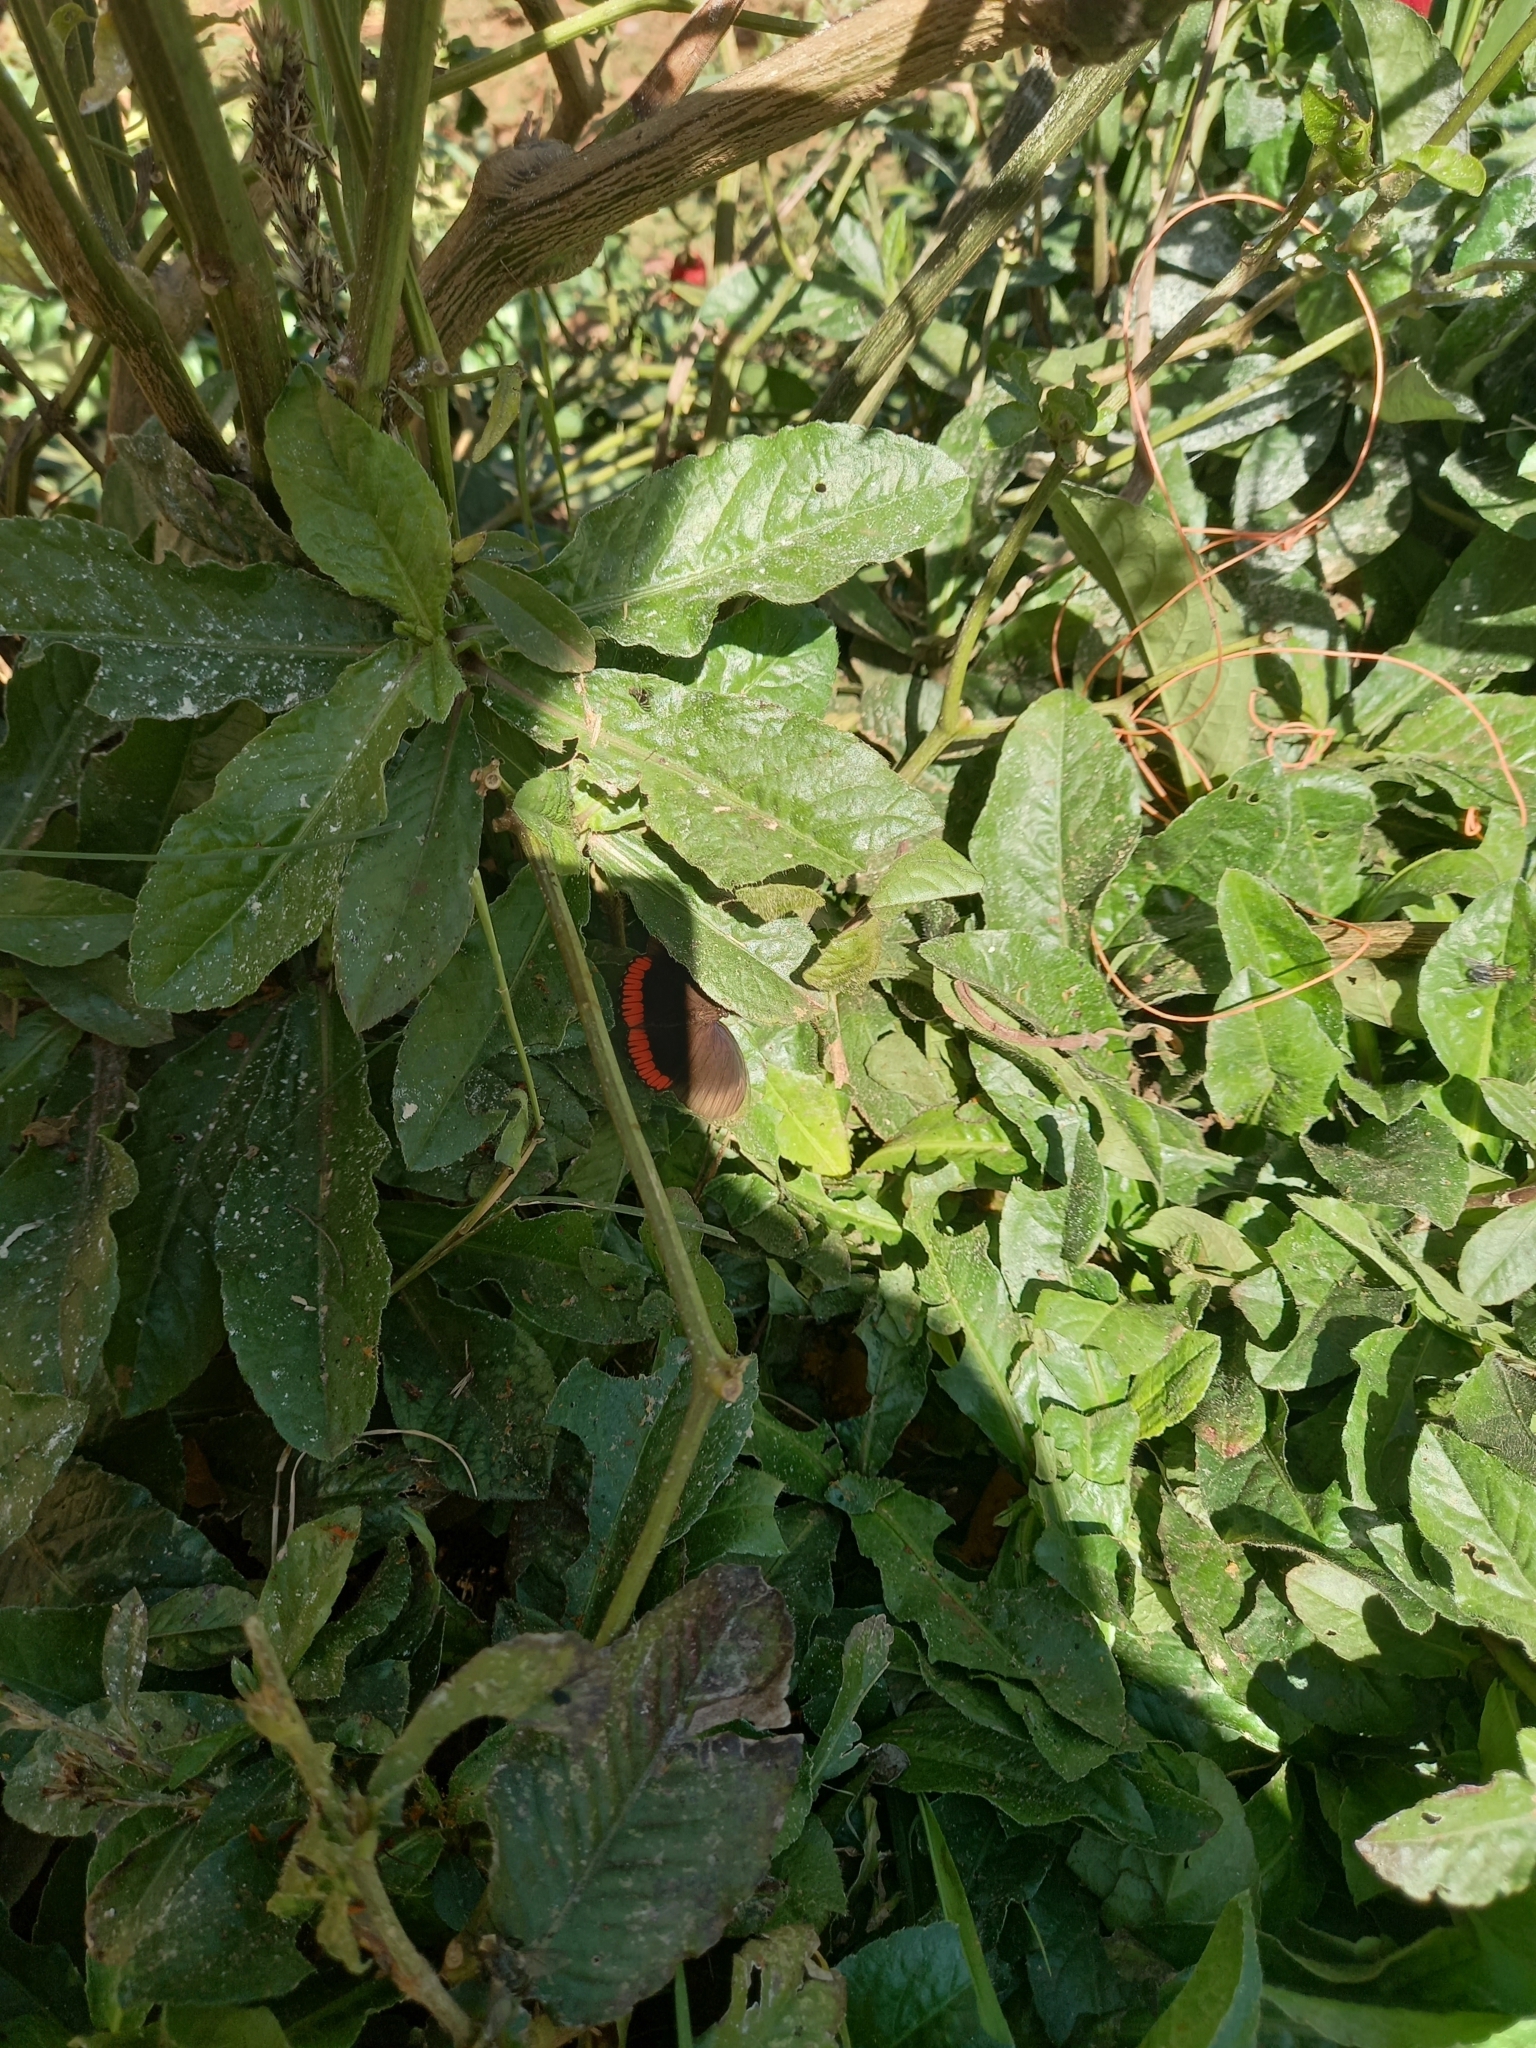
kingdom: Animalia
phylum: Arthropoda
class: Insecta
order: Lepidoptera
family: Sesiidae
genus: Sesia
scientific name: Sesia Biblis hyperia
